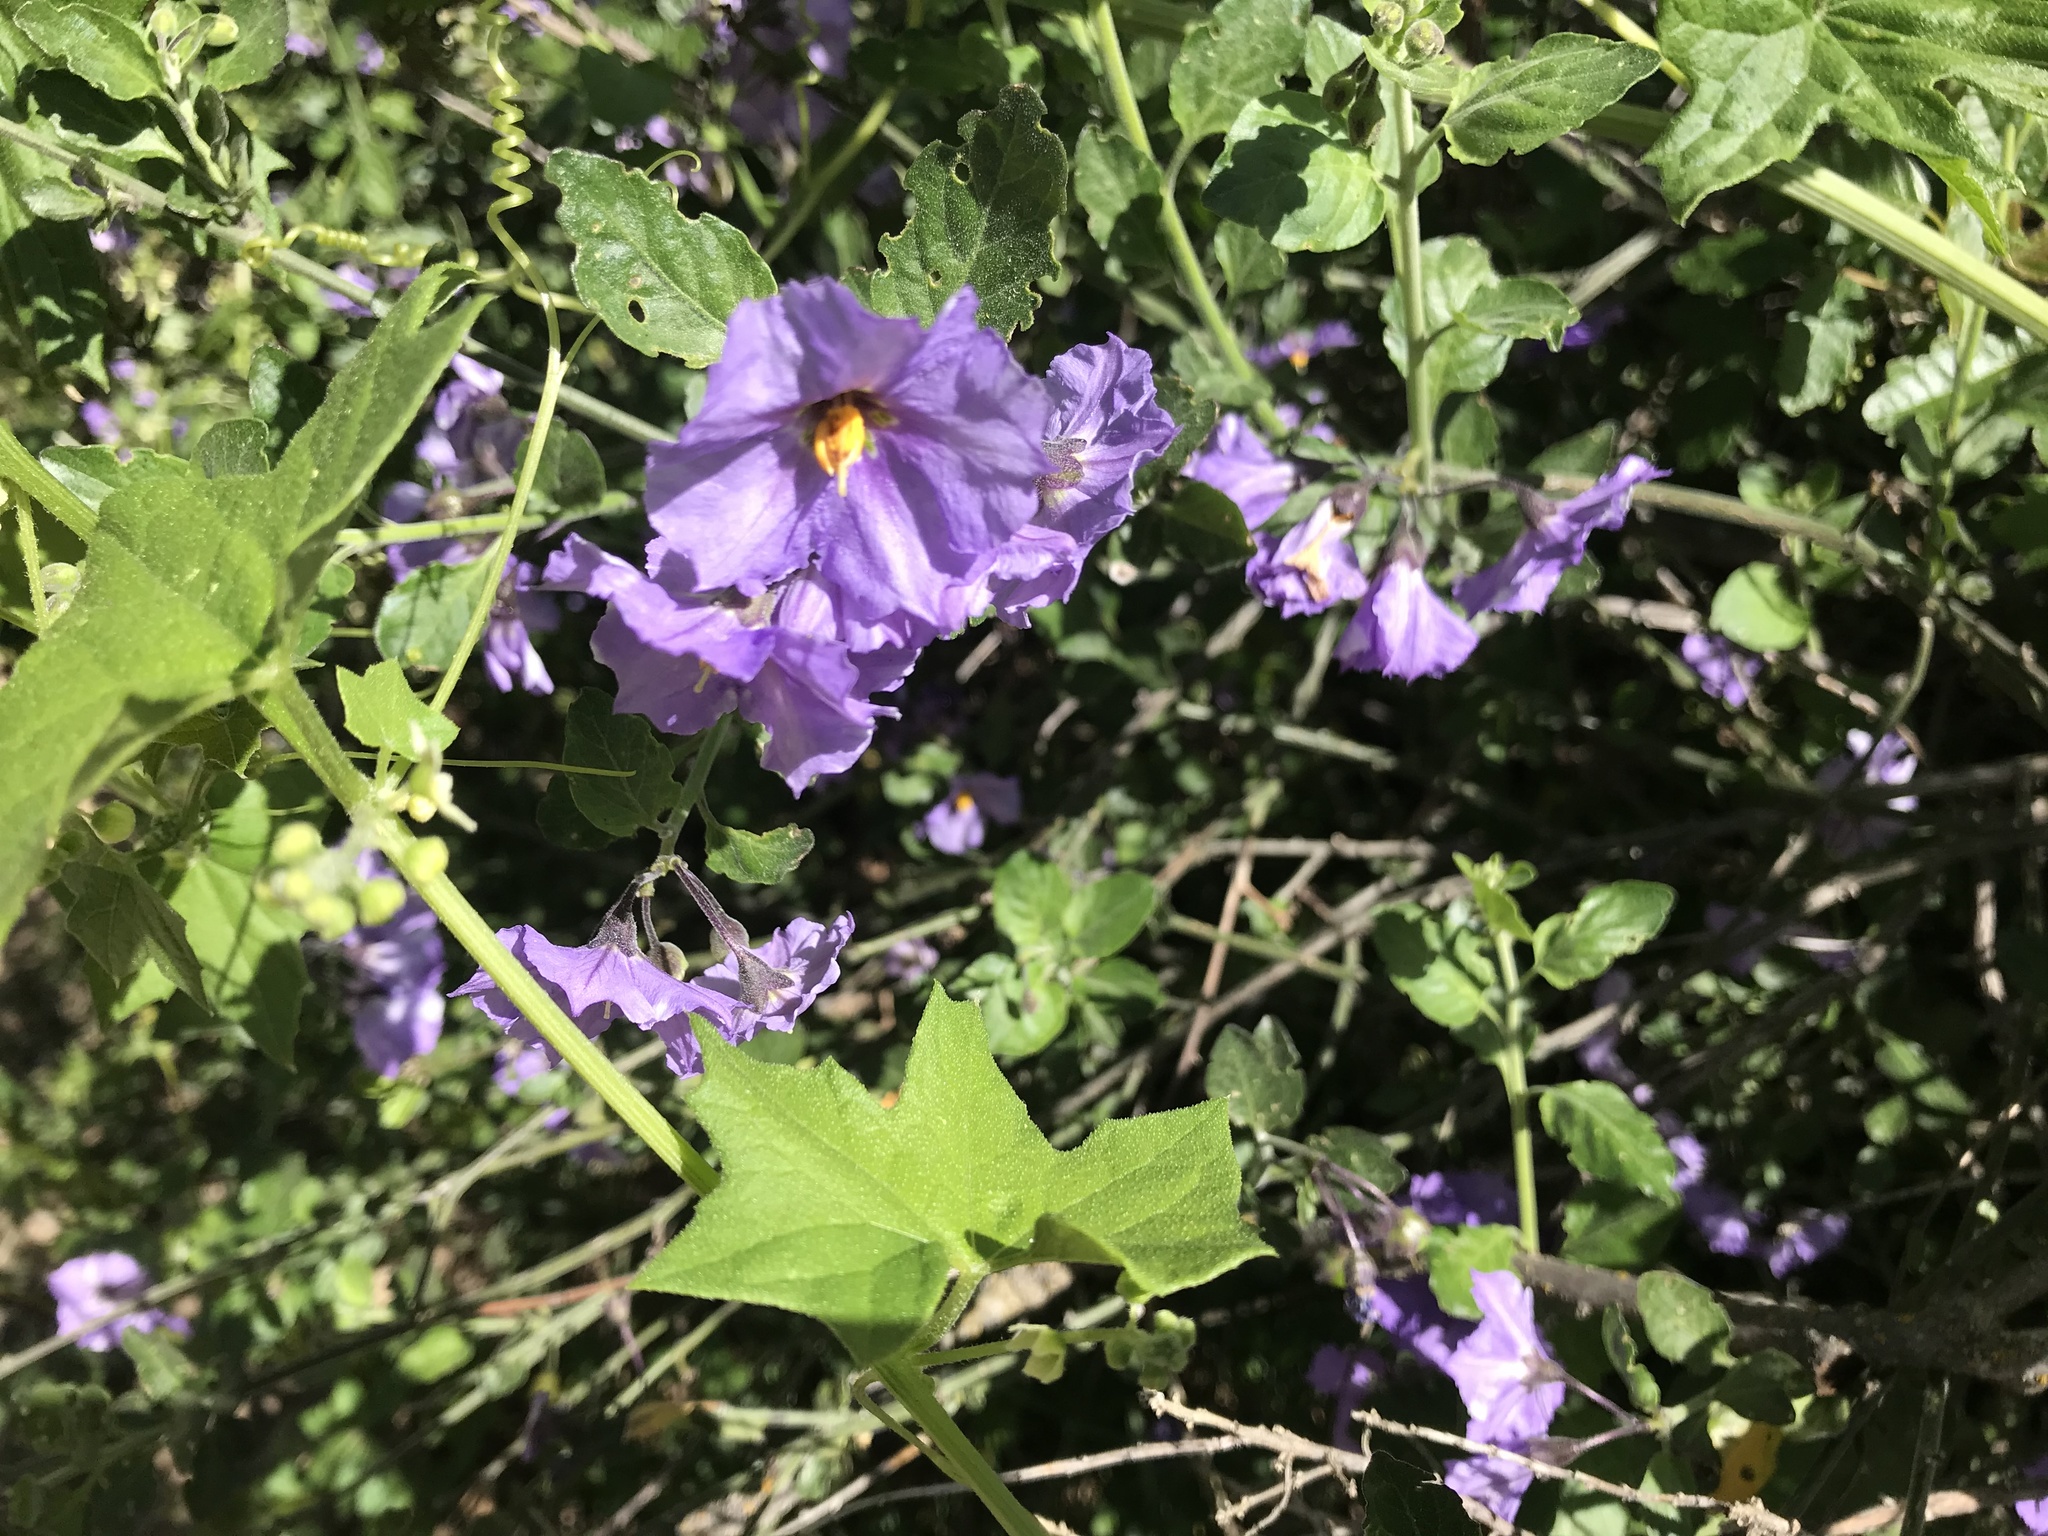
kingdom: Plantae
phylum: Tracheophyta
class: Magnoliopsida
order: Solanales
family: Solanaceae
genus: Solanum
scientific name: Solanum umbelliferum
